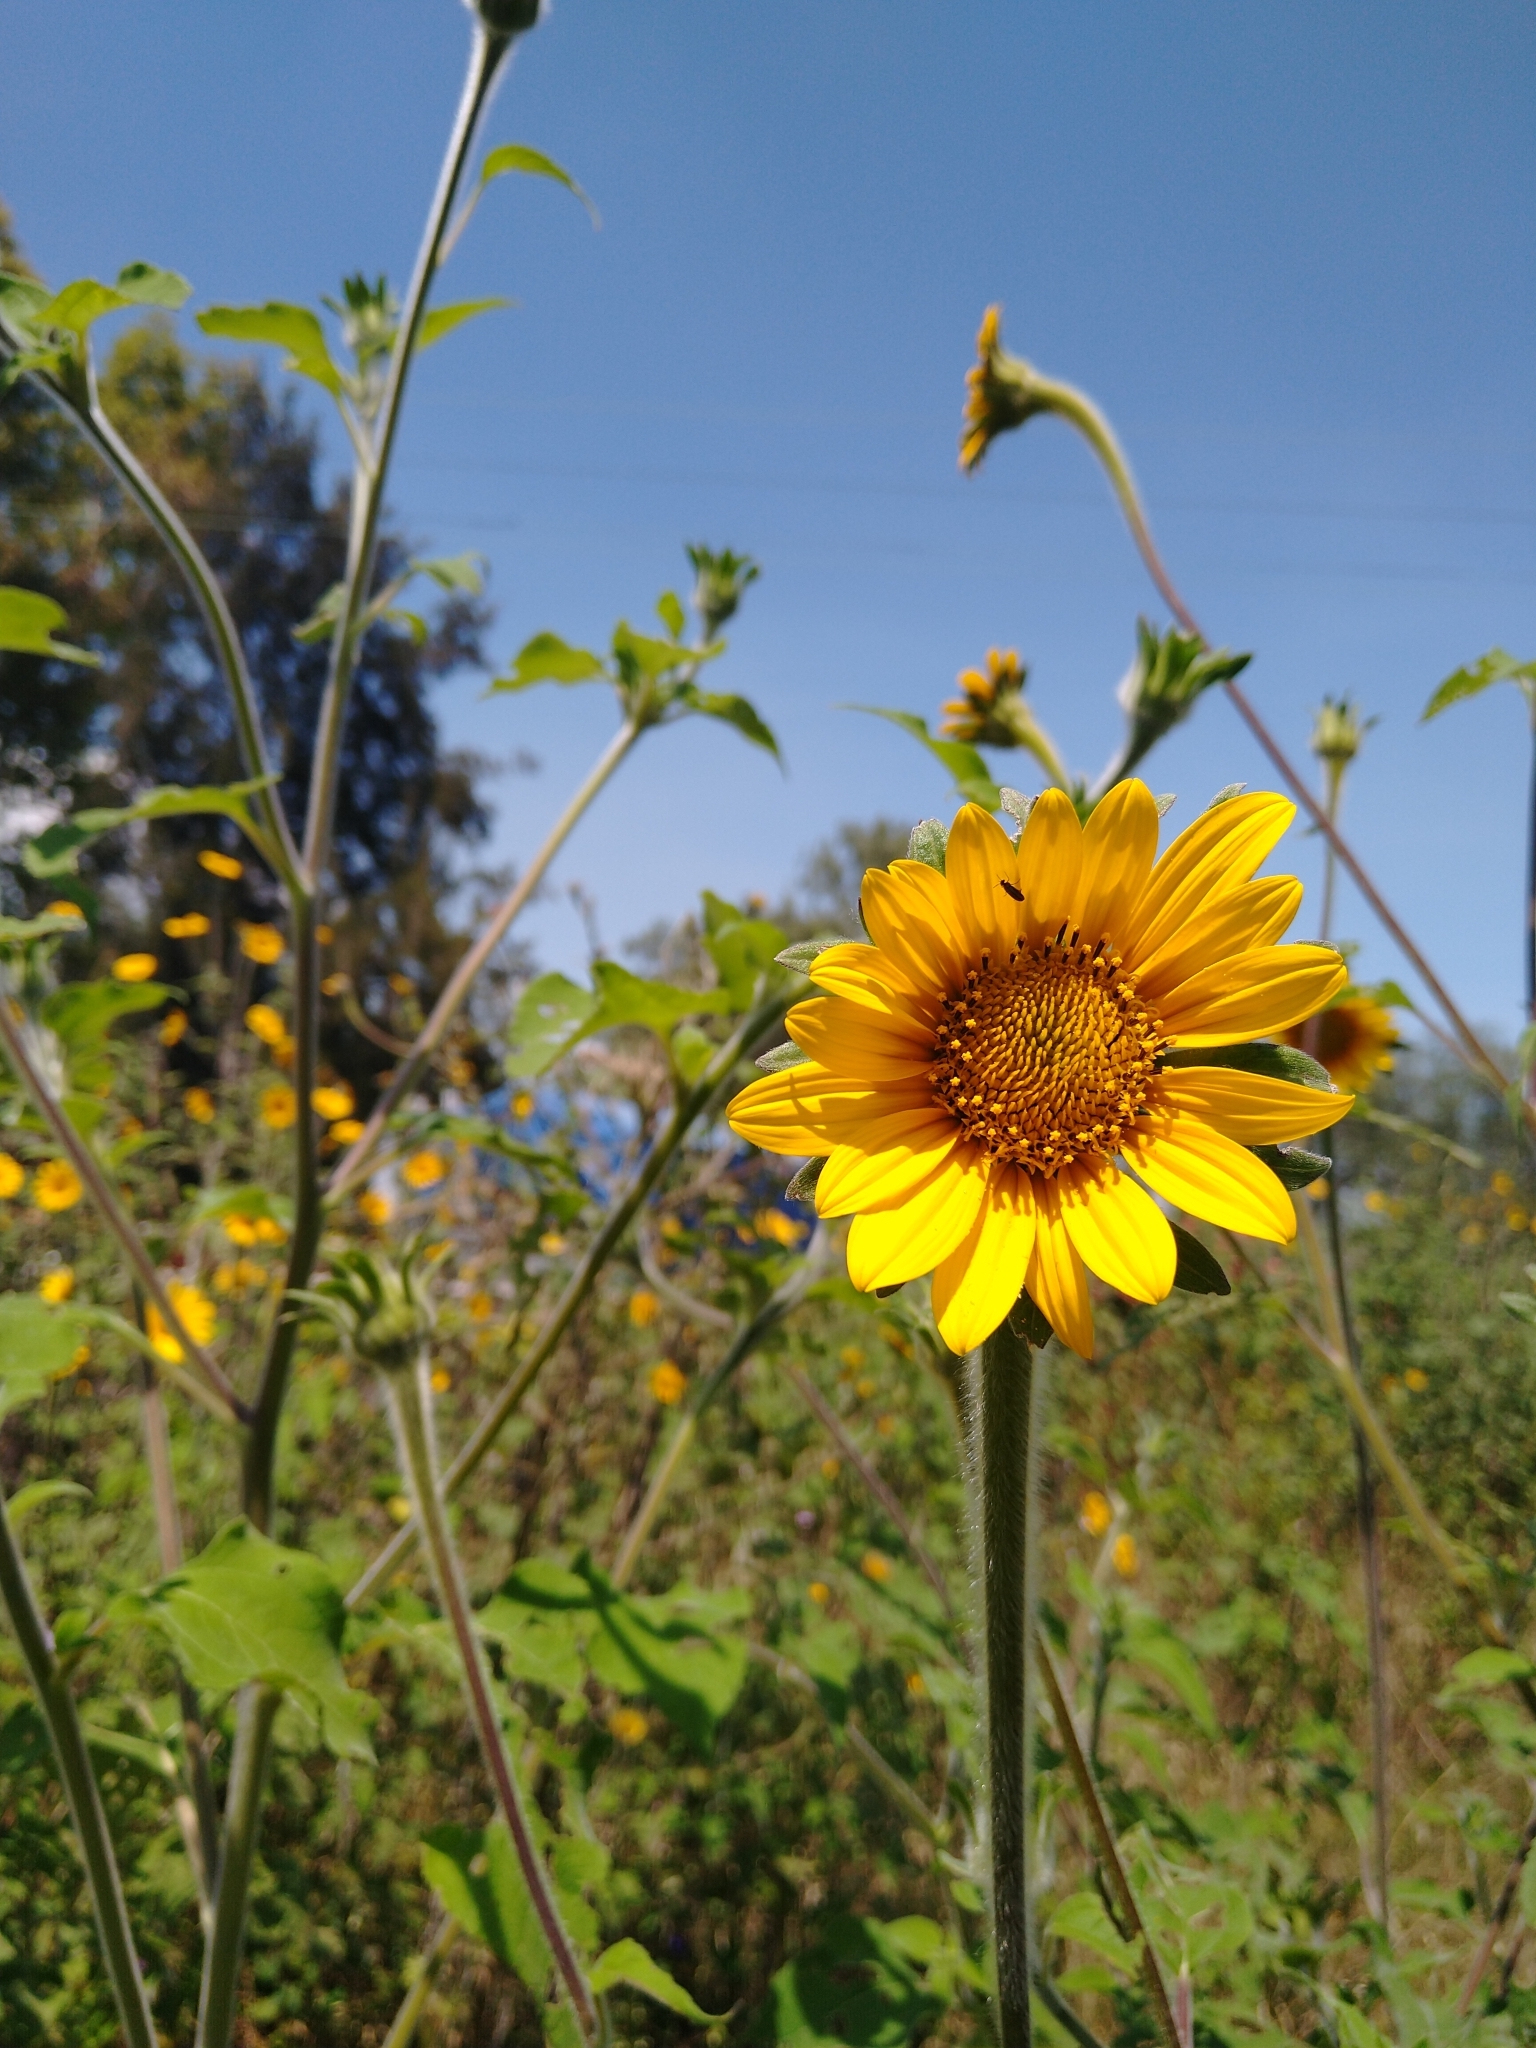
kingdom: Plantae
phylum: Tracheophyta
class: Magnoliopsida
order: Asterales
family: Asteraceae
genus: Tithonia
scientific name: Tithonia tubaeformis
